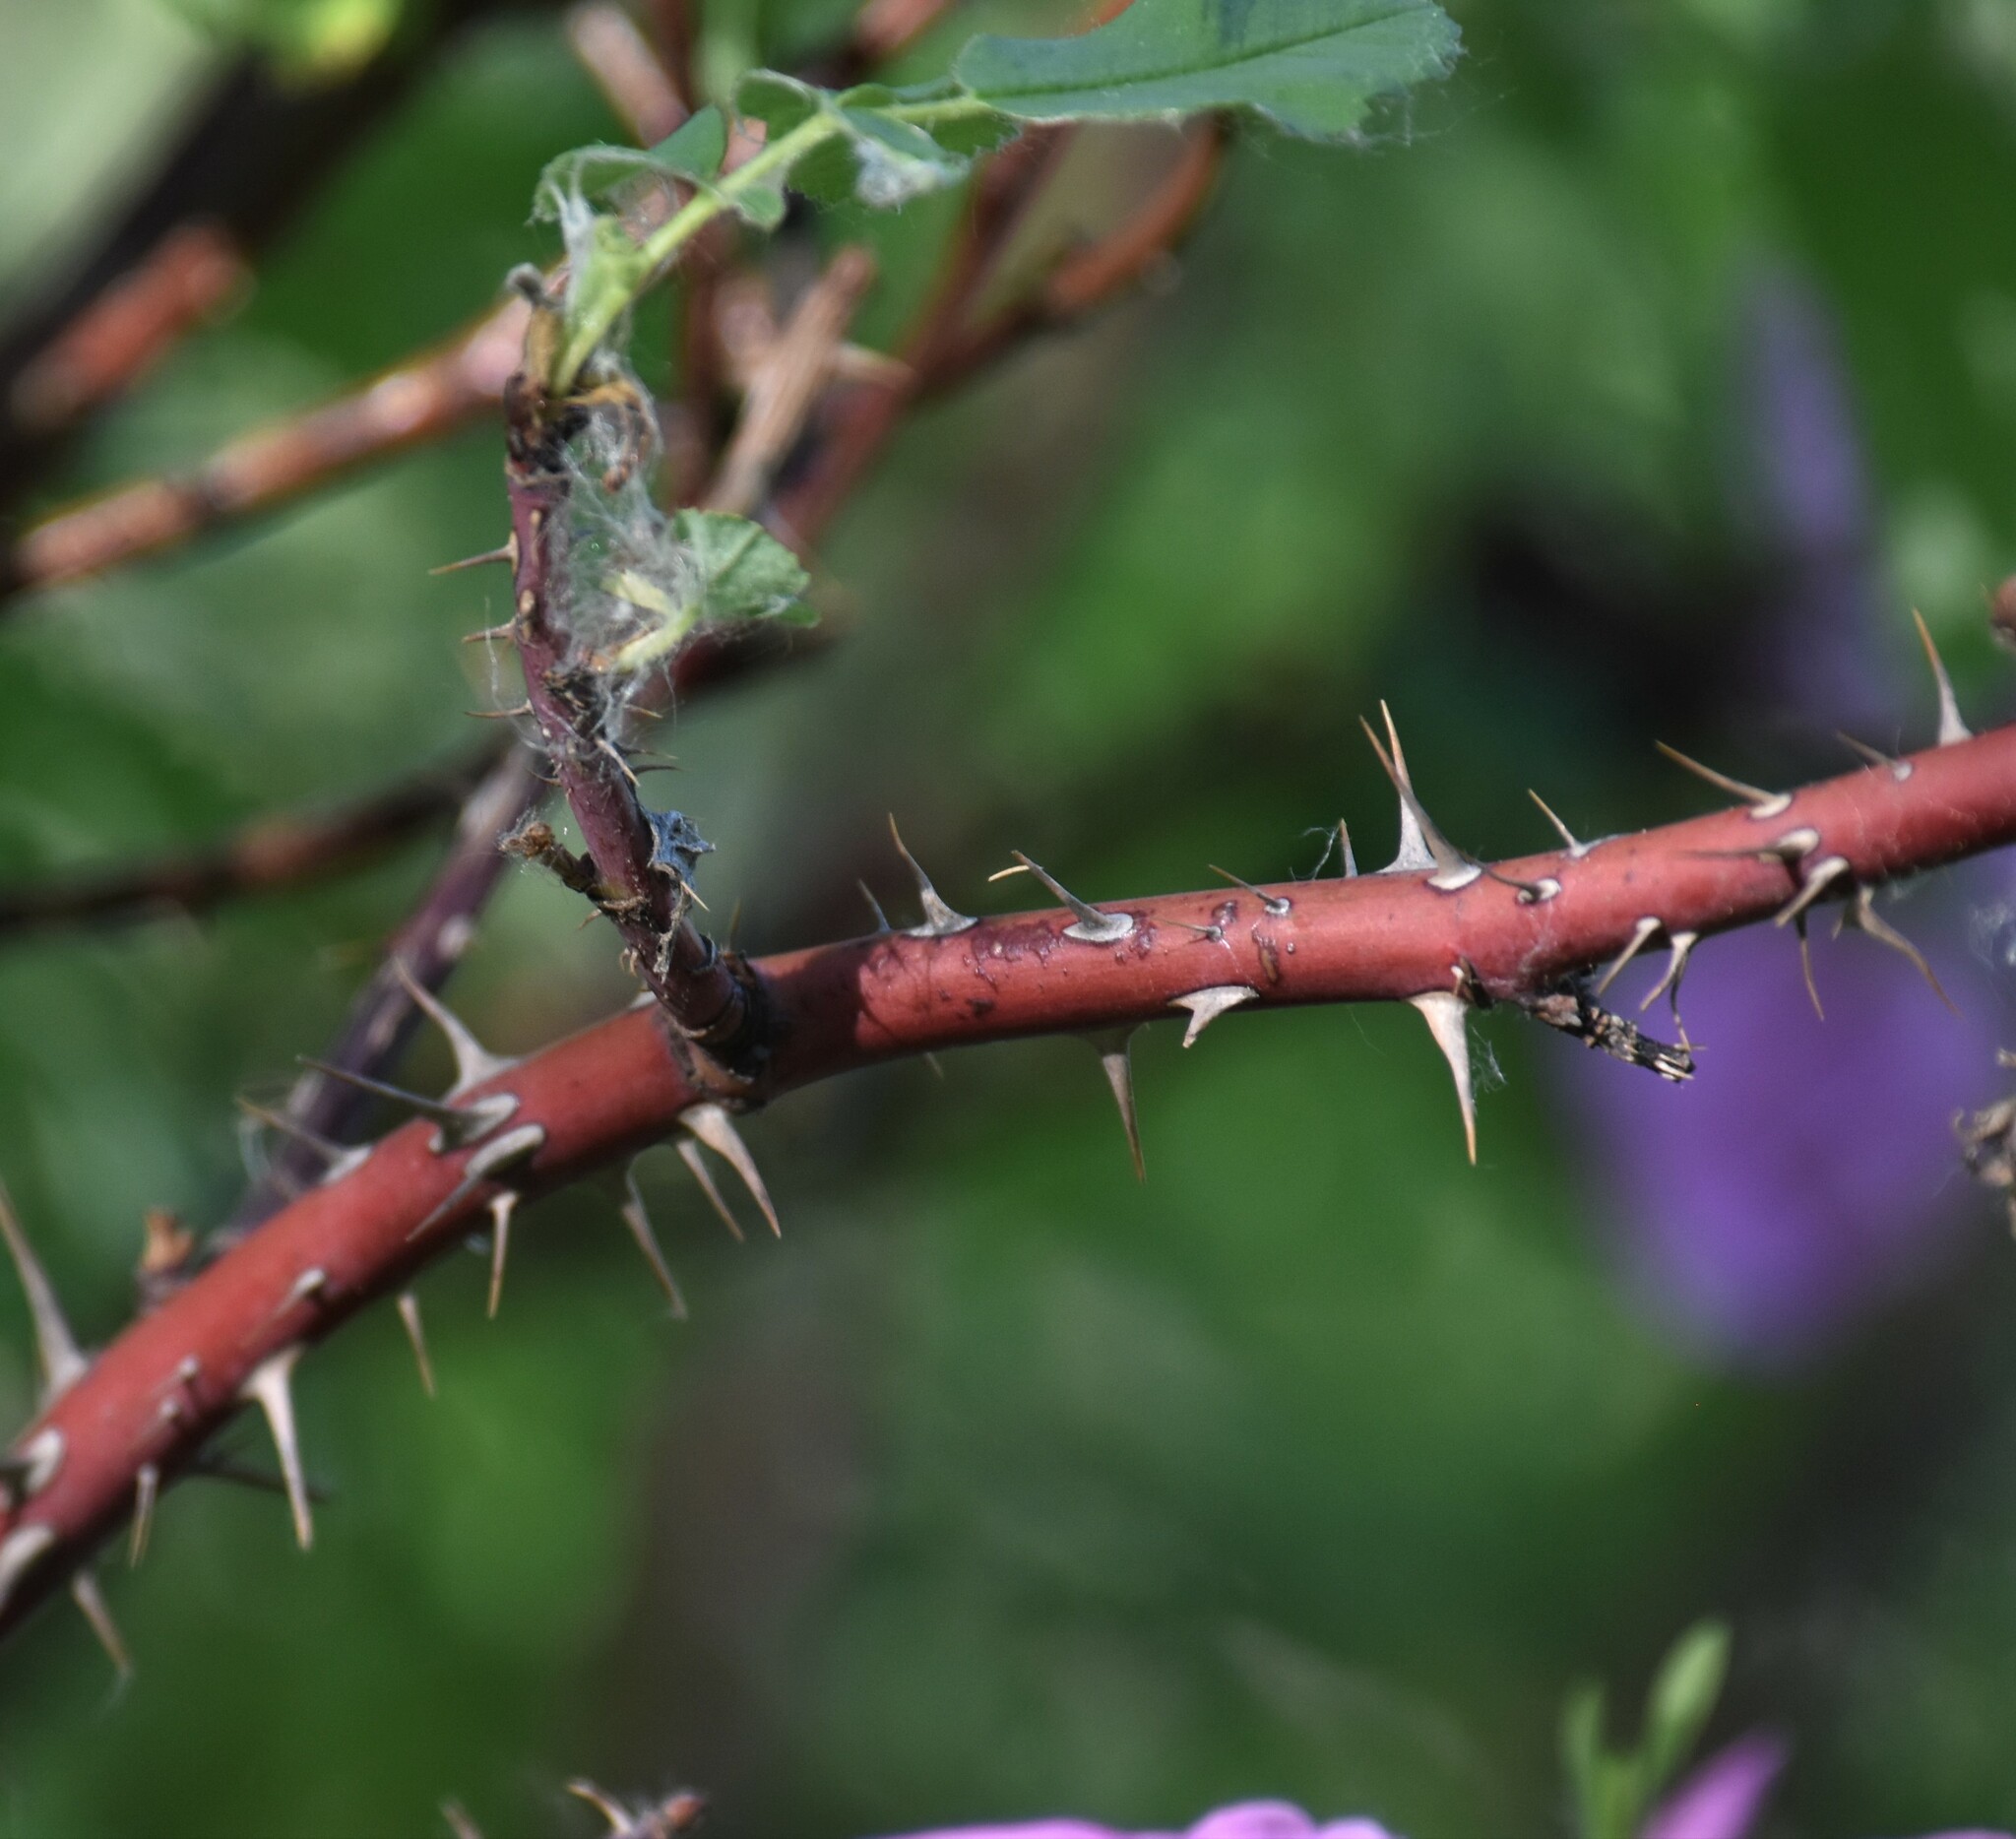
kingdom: Plantae
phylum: Tracheophyta
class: Magnoliopsida
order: Rosales
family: Rosaceae
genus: Rosa
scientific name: Rosa acicularis
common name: Prickly rose
